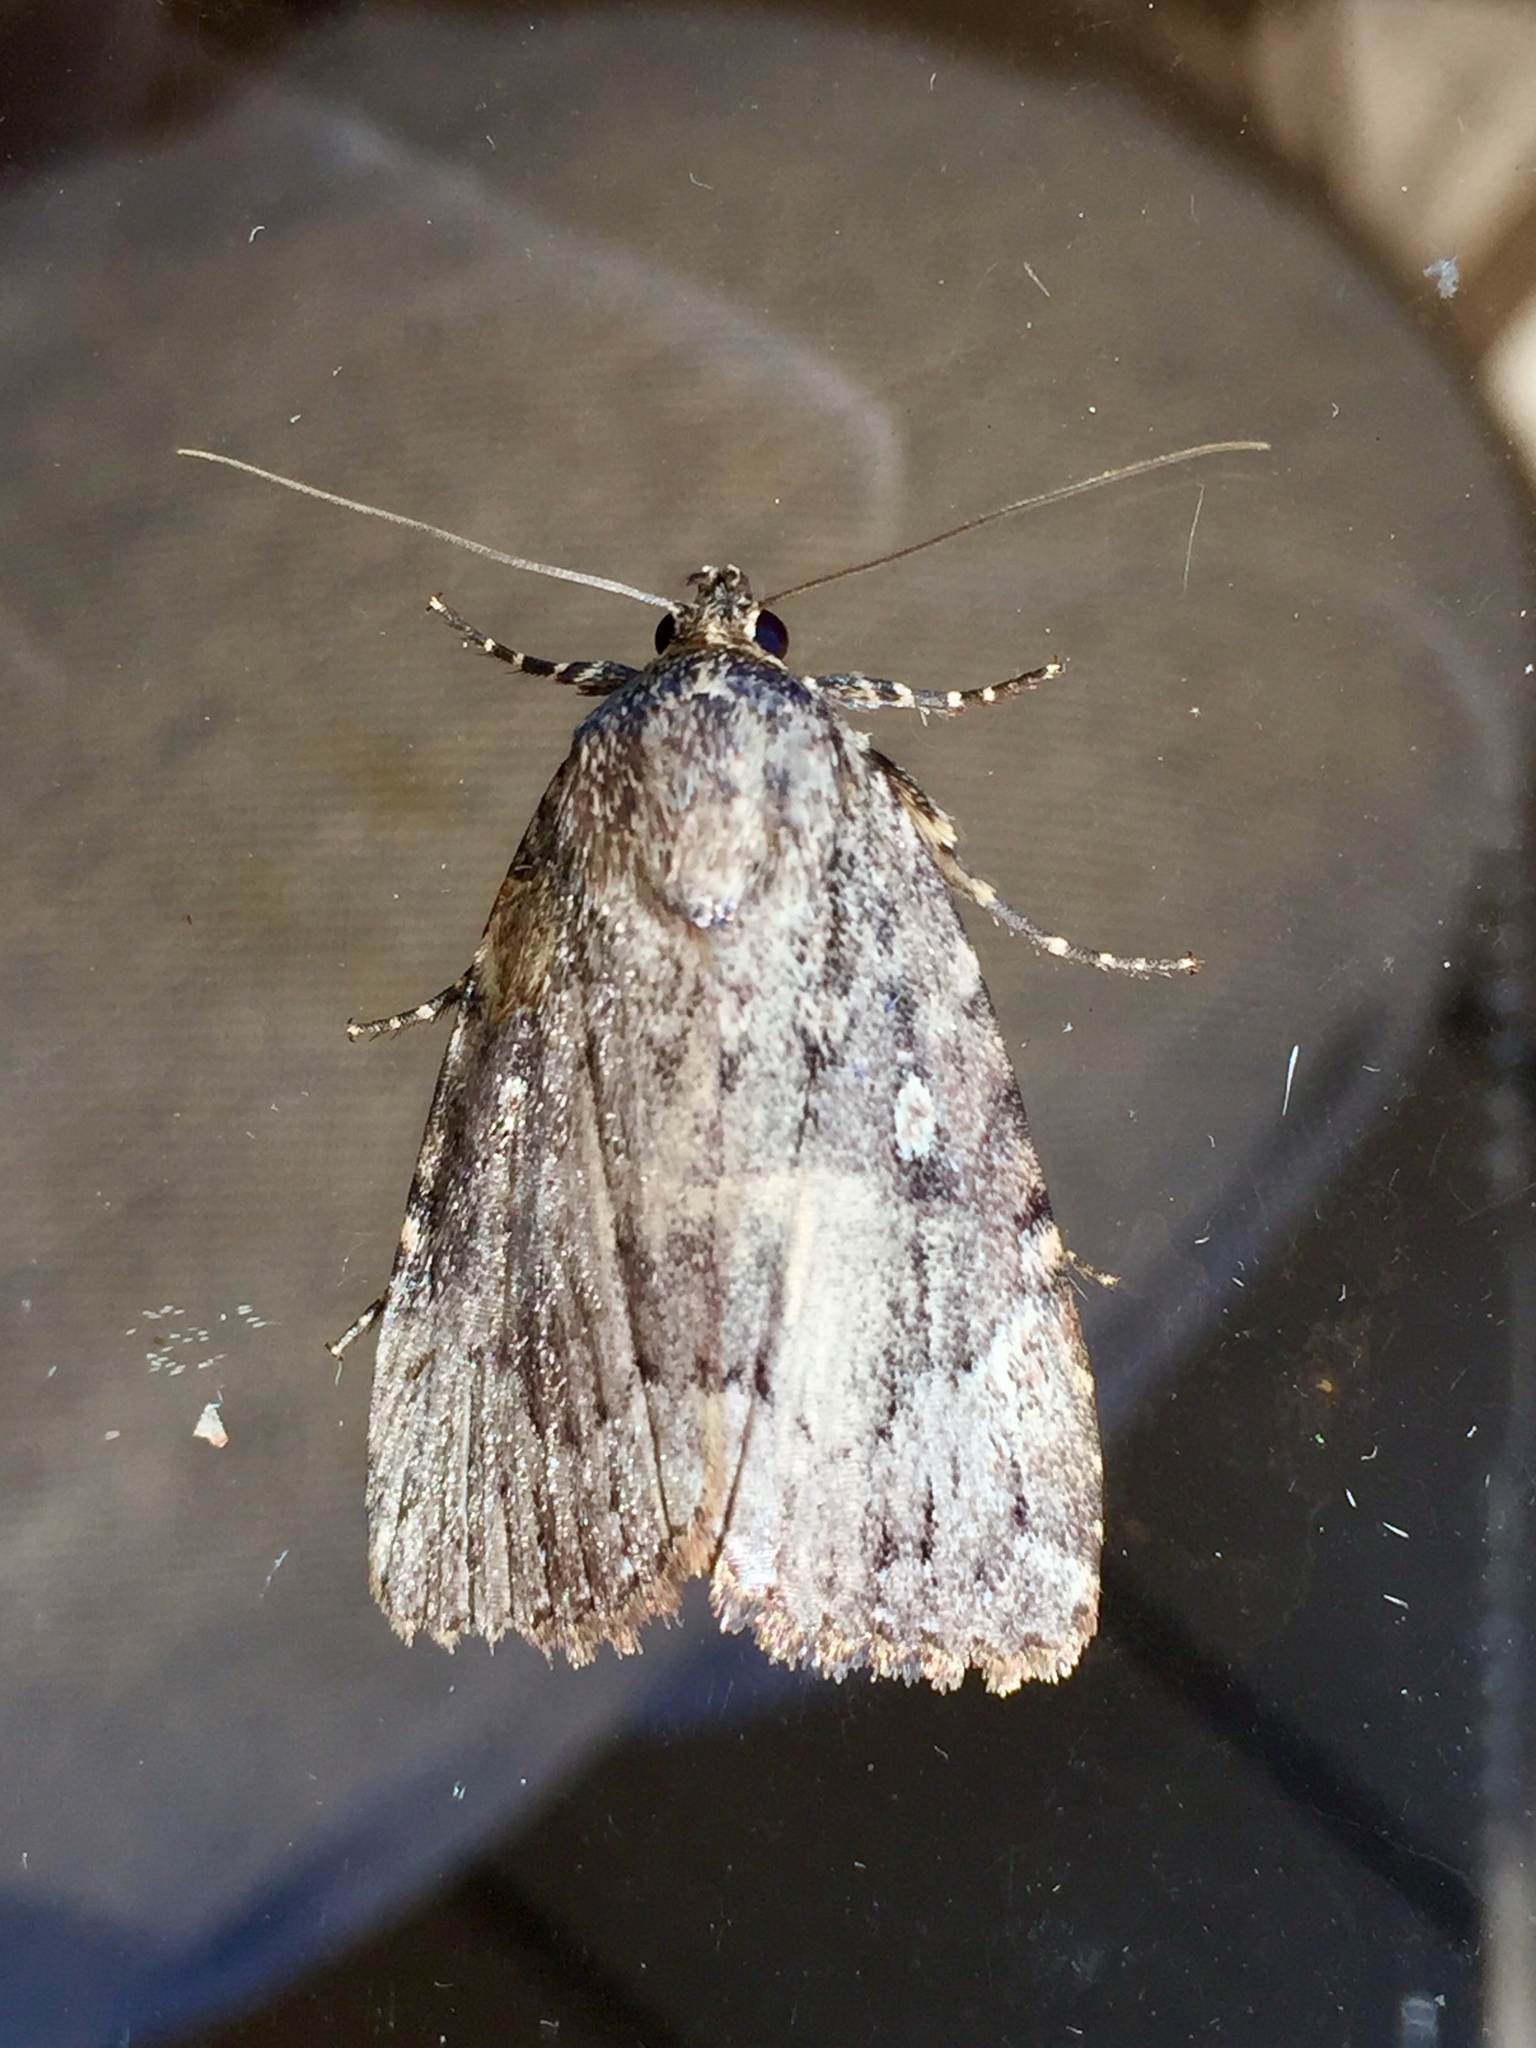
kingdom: Animalia
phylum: Arthropoda
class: Insecta
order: Lepidoptera
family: Noctuidae
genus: Amphipyra
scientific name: Amphipyra pyramidoides
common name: American copper underwing
